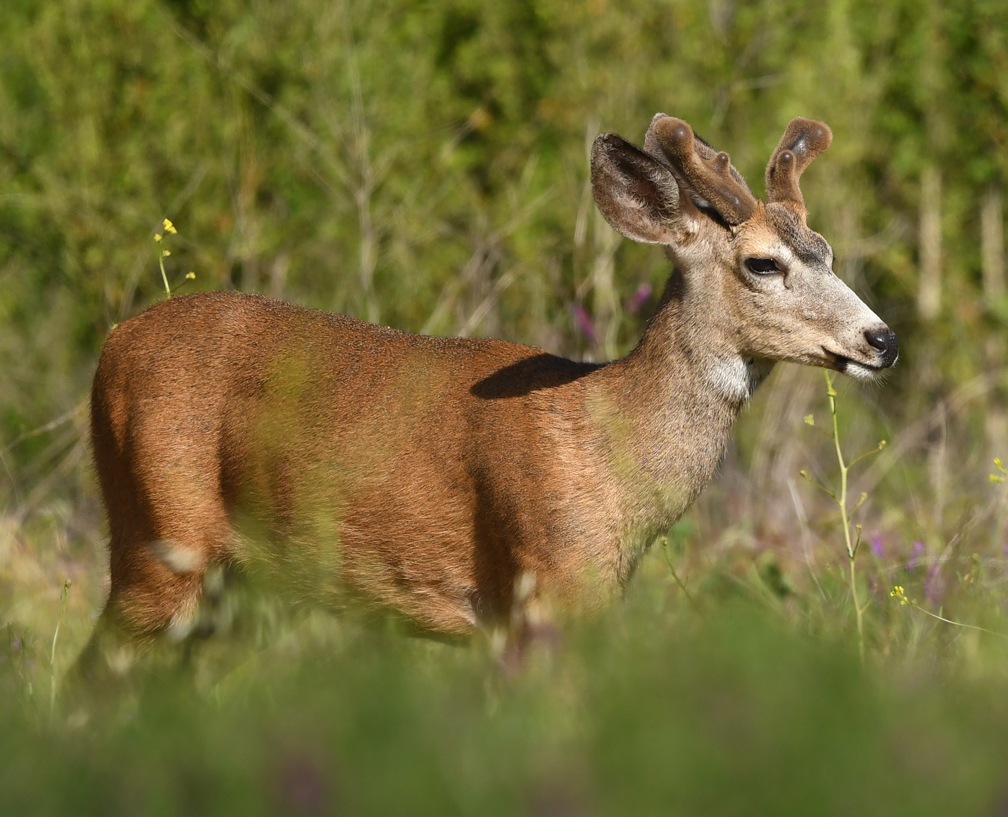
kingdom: Animalia
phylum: Chordata
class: Mammalia
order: Artiodactyla
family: Cervidae
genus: Odocoileus
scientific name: Odocoileus hemionus
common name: Mule deer
